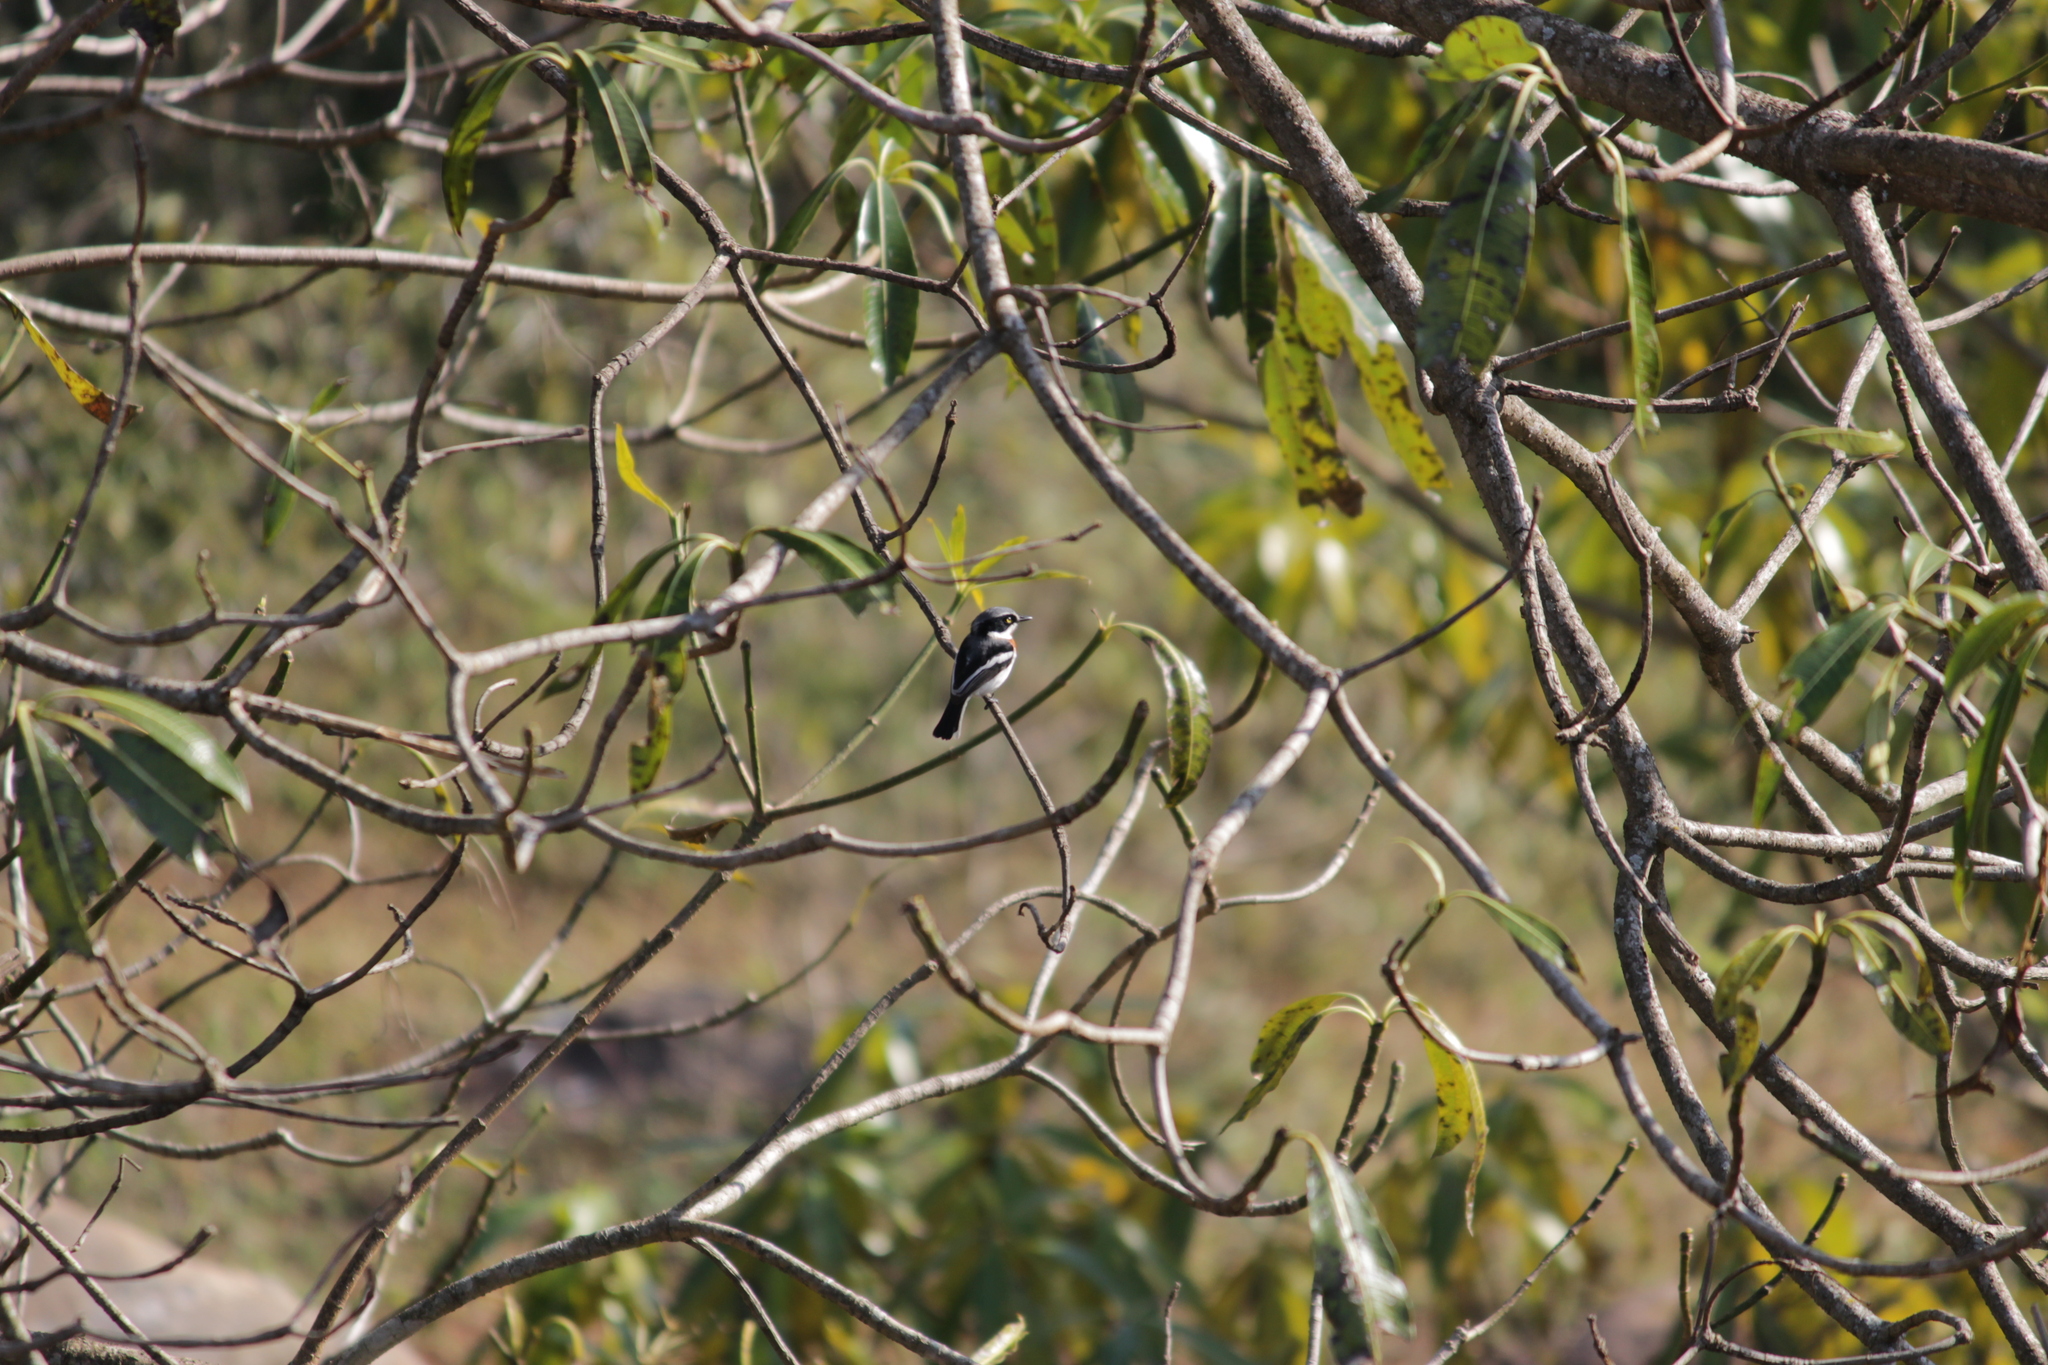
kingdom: Animalia
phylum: Chordata
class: Aves
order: Passeriformes
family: Platysteiridae
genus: Batis
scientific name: Batis molitor
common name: Chinspot batis
